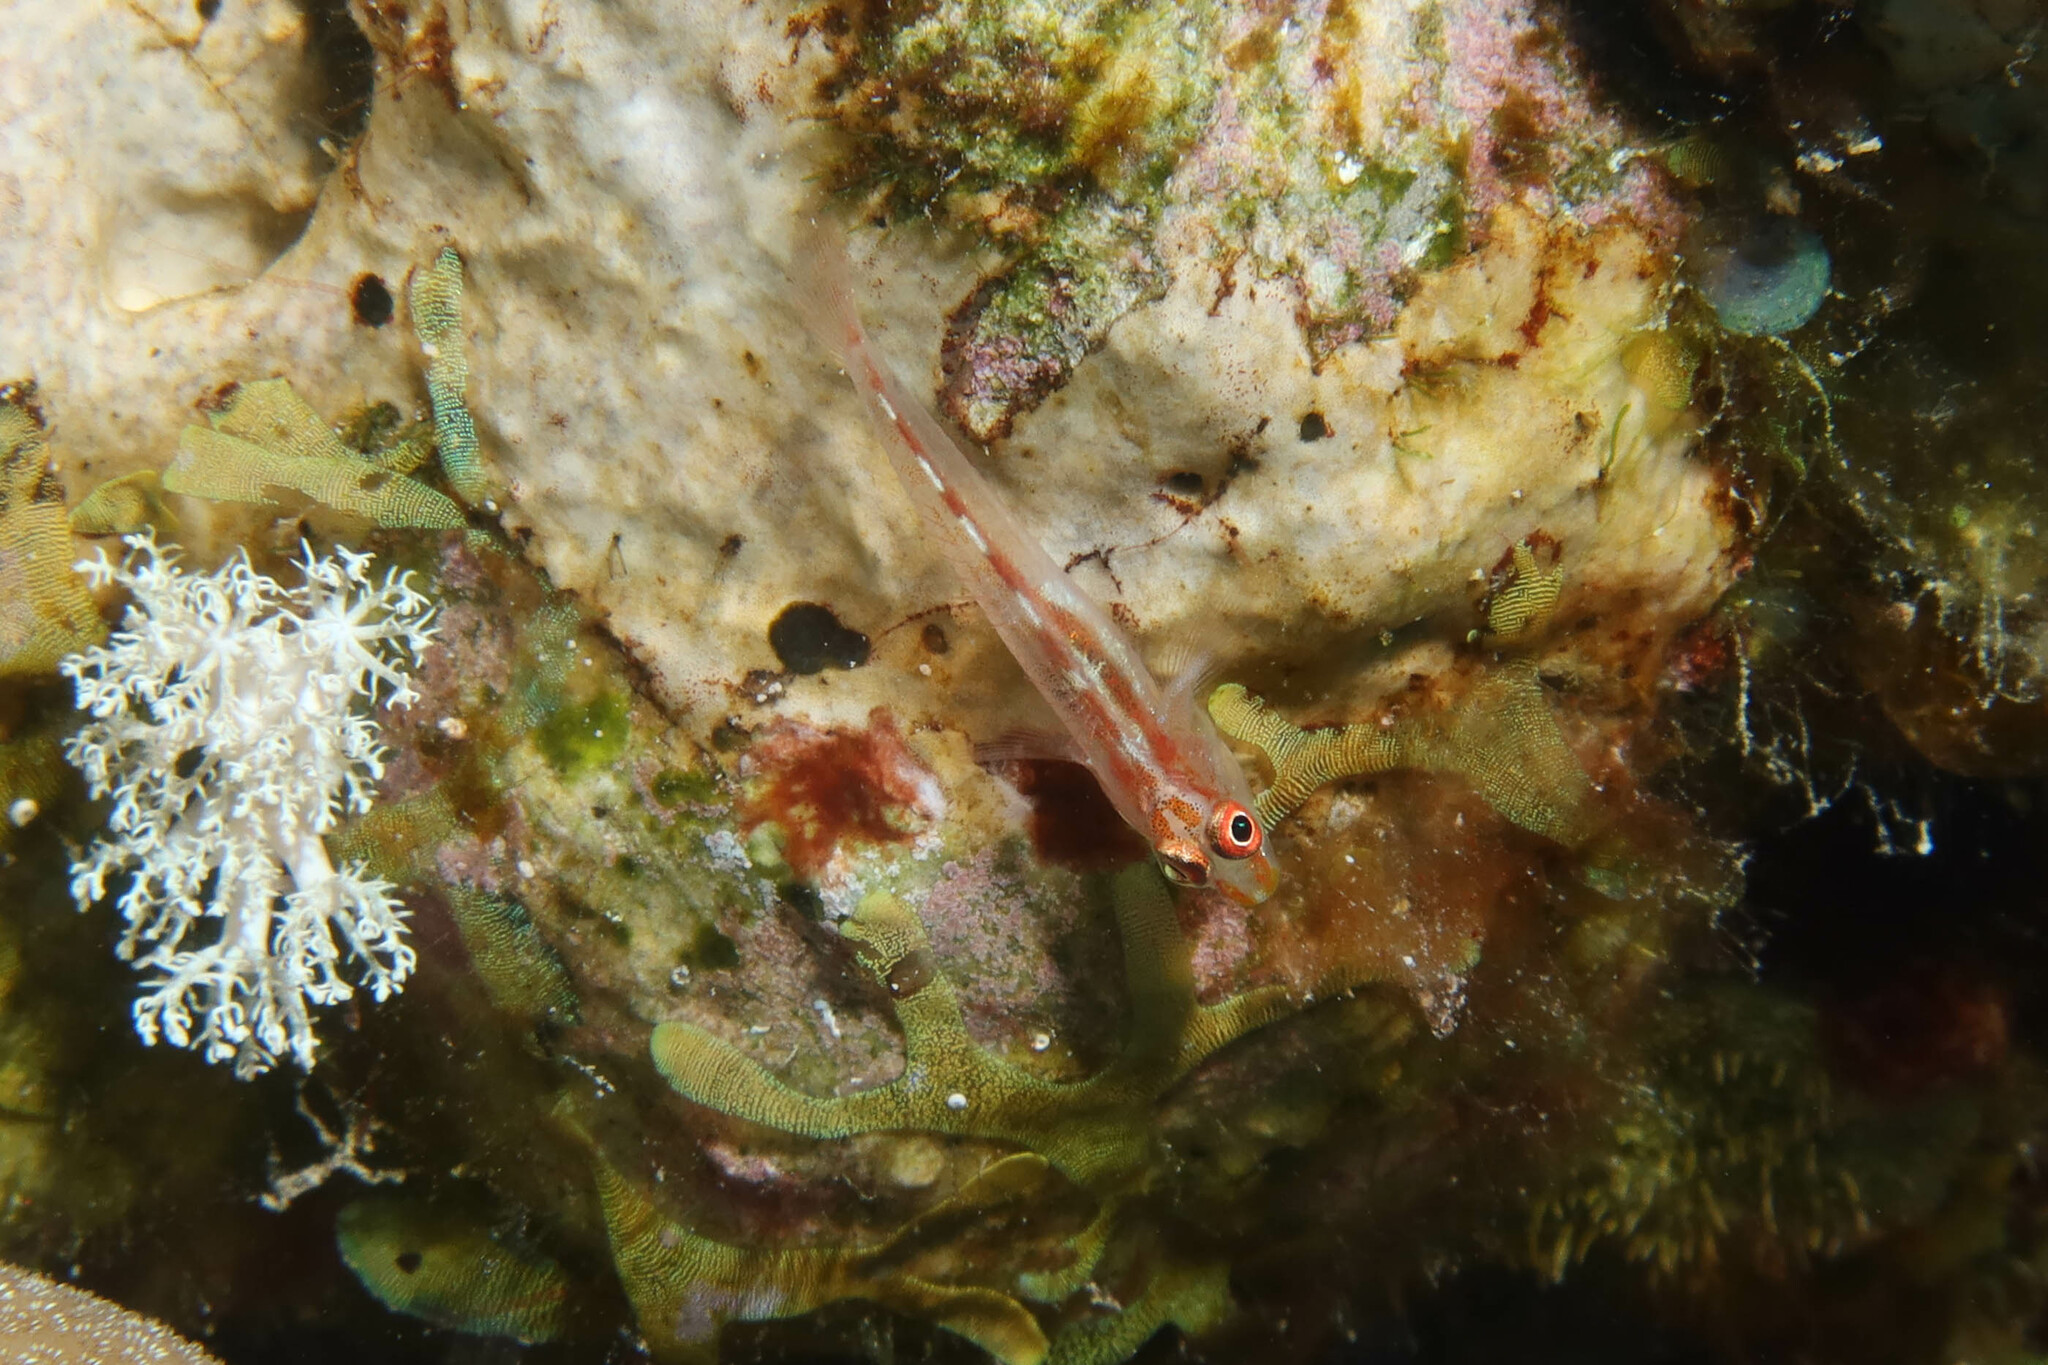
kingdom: Animalia
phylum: Chordata
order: Perciformes
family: Gobiidae
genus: Pleurosicya
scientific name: Pleurosicya mossambica
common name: Common ghost goby
